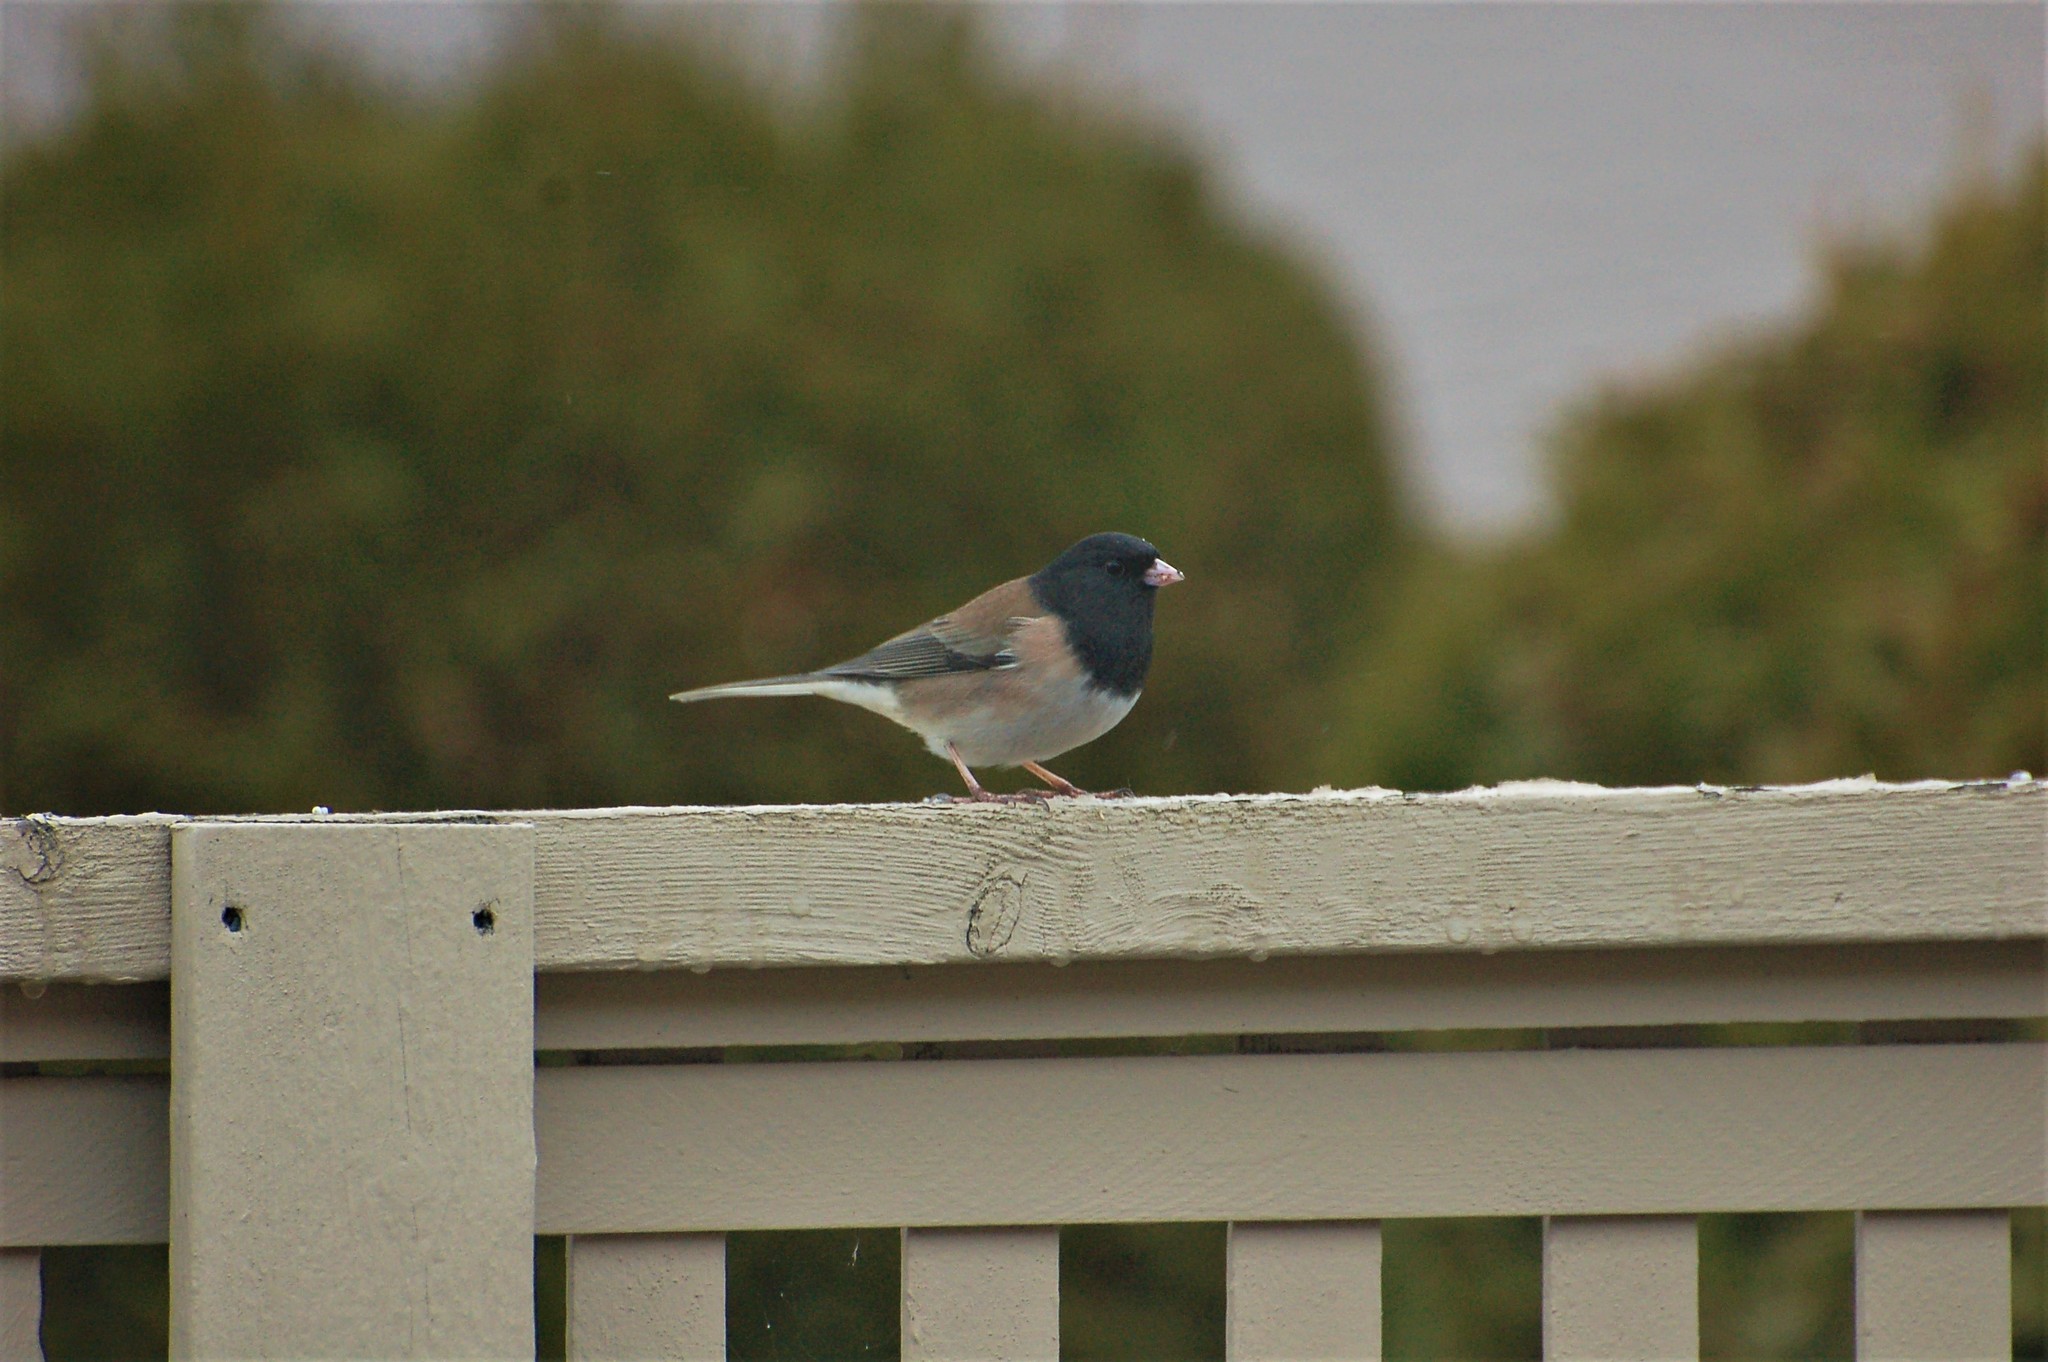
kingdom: Animalia
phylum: Chordata
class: Aves
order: Passeriformes
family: Passerellidae
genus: Junco
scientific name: Junco hyemalis
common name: Dark-eyed junco
